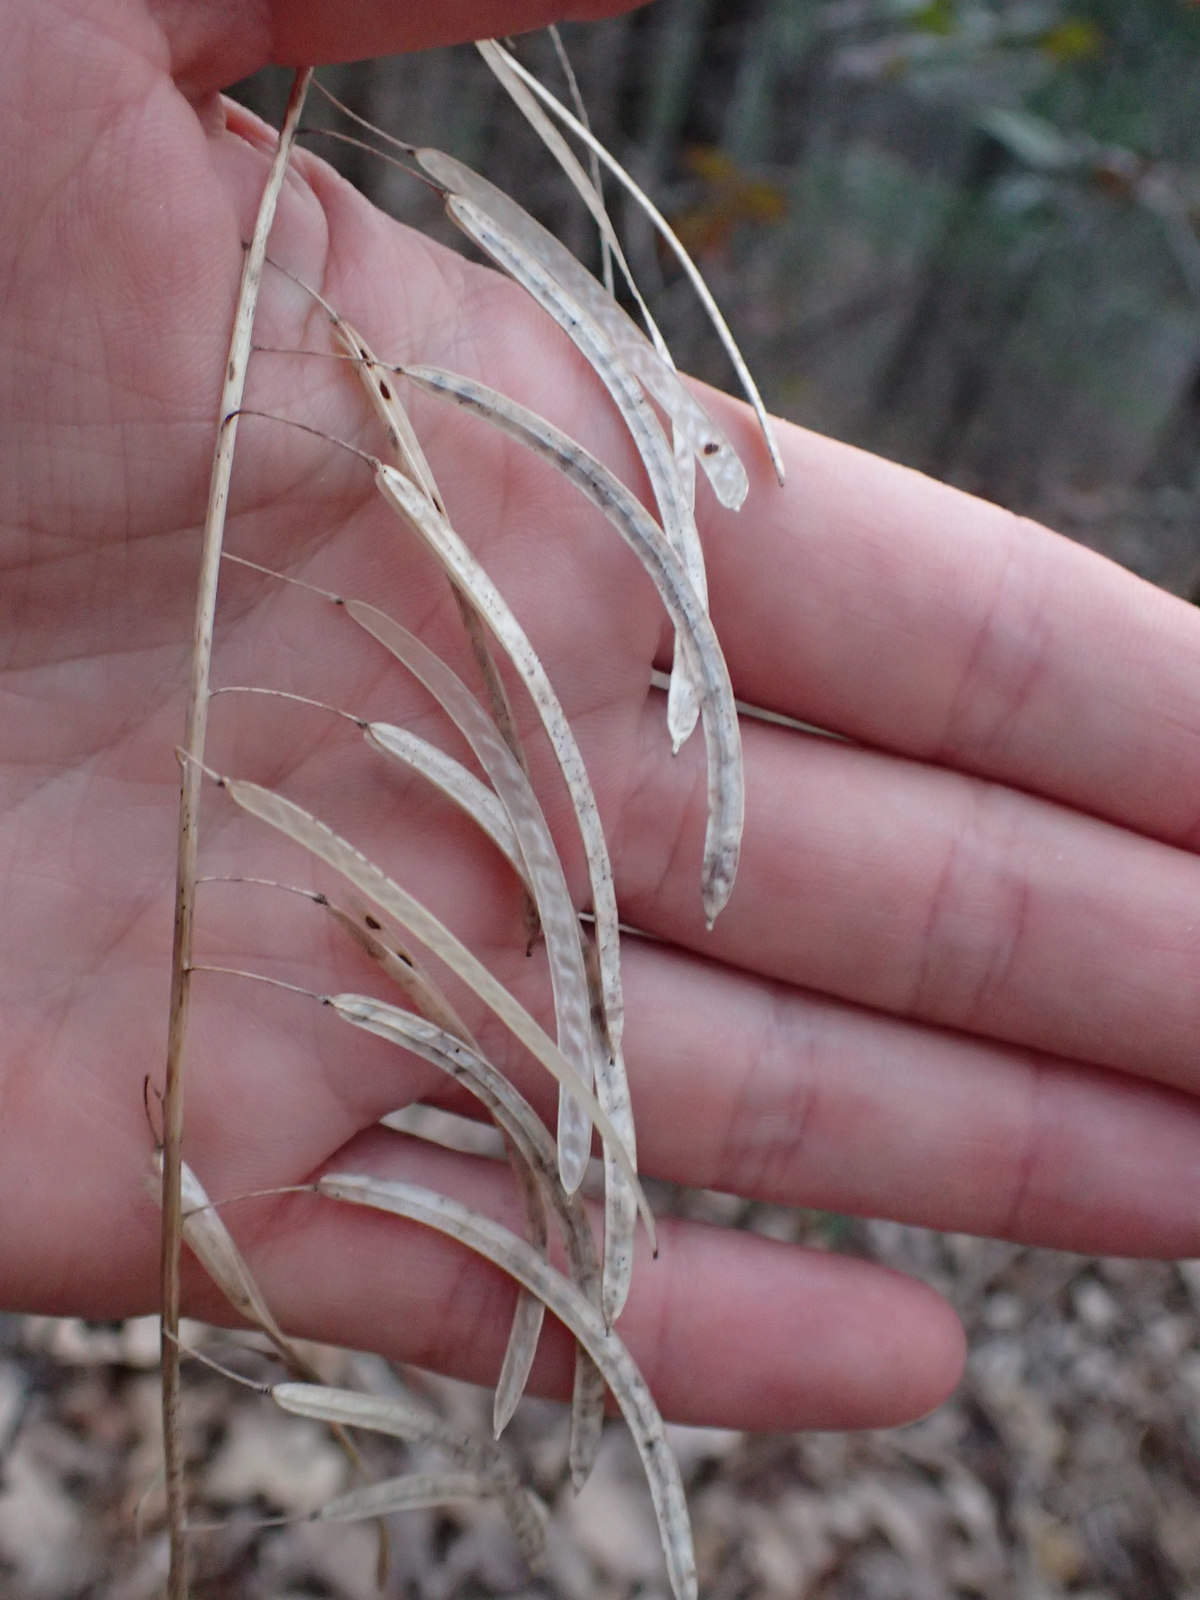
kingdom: Plantae
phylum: Tracheophyta
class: Magnoliopsida
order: Brassicales
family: Brassicaceae
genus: Borodinia
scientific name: Borodinia canadensis
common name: Sicklepod
